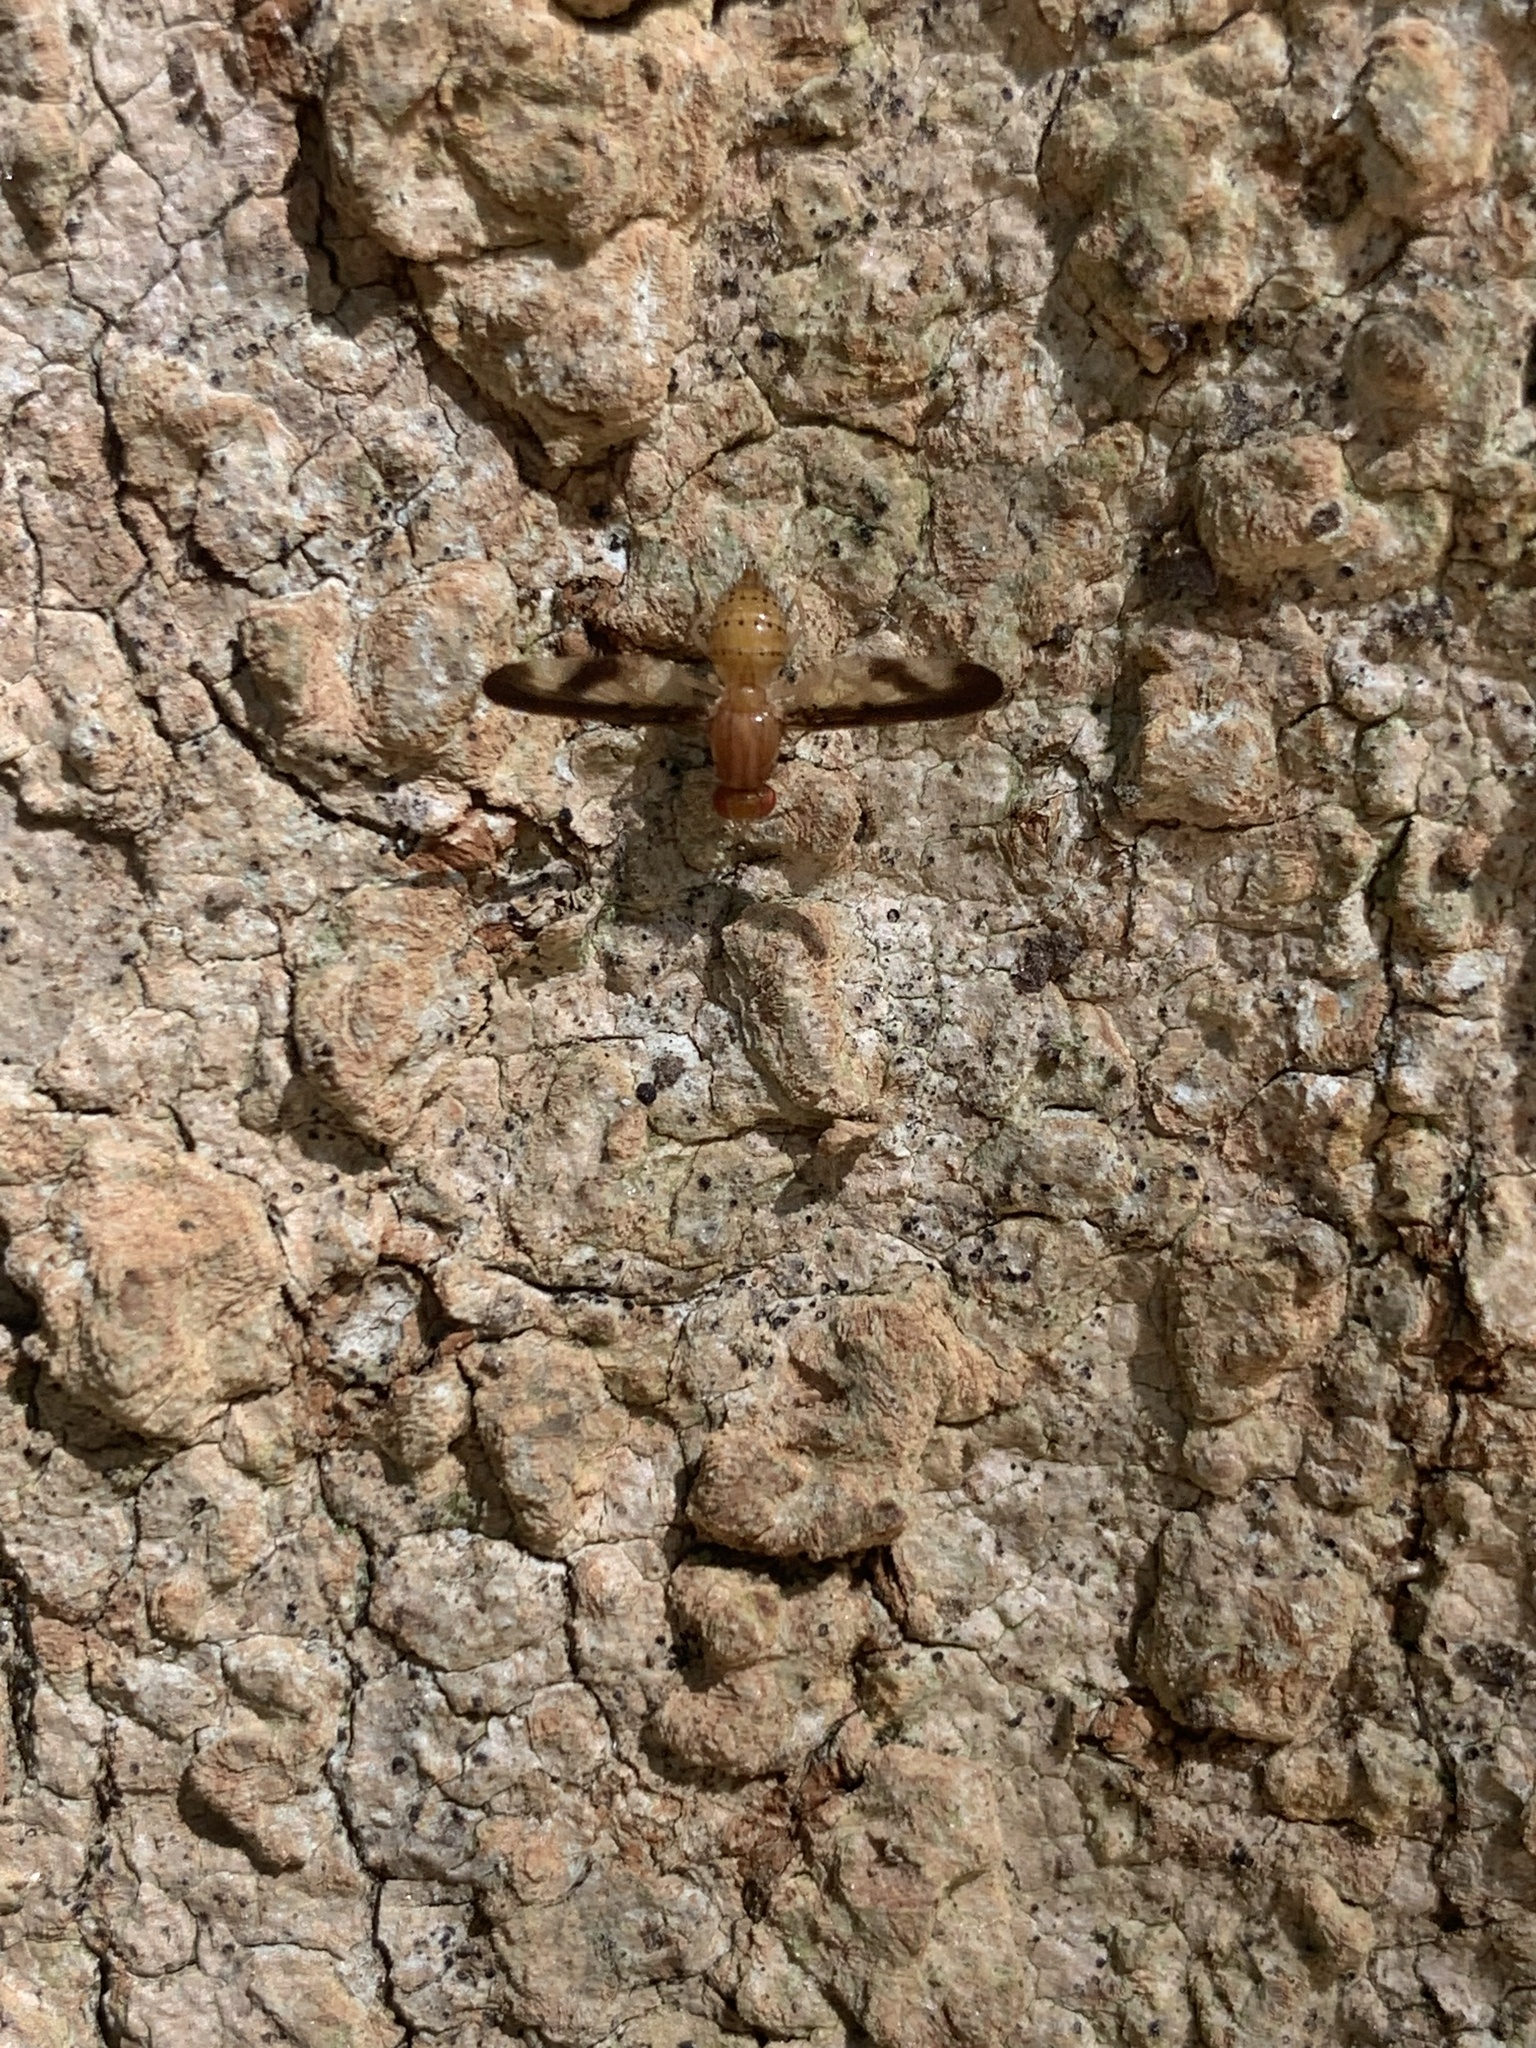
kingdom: Animalia
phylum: Arthropoda
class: Insecta
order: Diptera
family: Pallopteridae
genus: Toxonevra
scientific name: Toxonevra superba
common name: Antlered flutter fly
